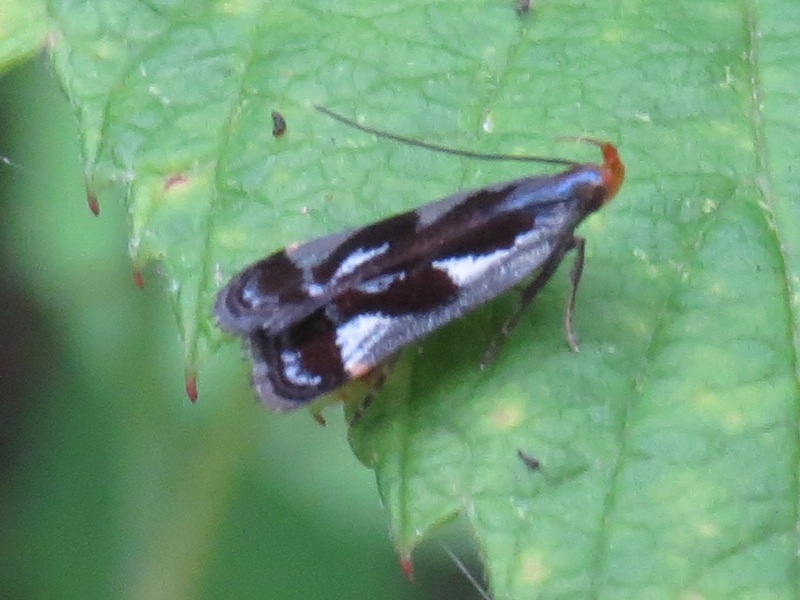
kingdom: Animalia
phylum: Arthropoda
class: Insecta
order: Lepidoptera
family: Gelechiidae
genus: Dichomeris
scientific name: Dichomeris ochripalpella
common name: Shining dichomeris moth
